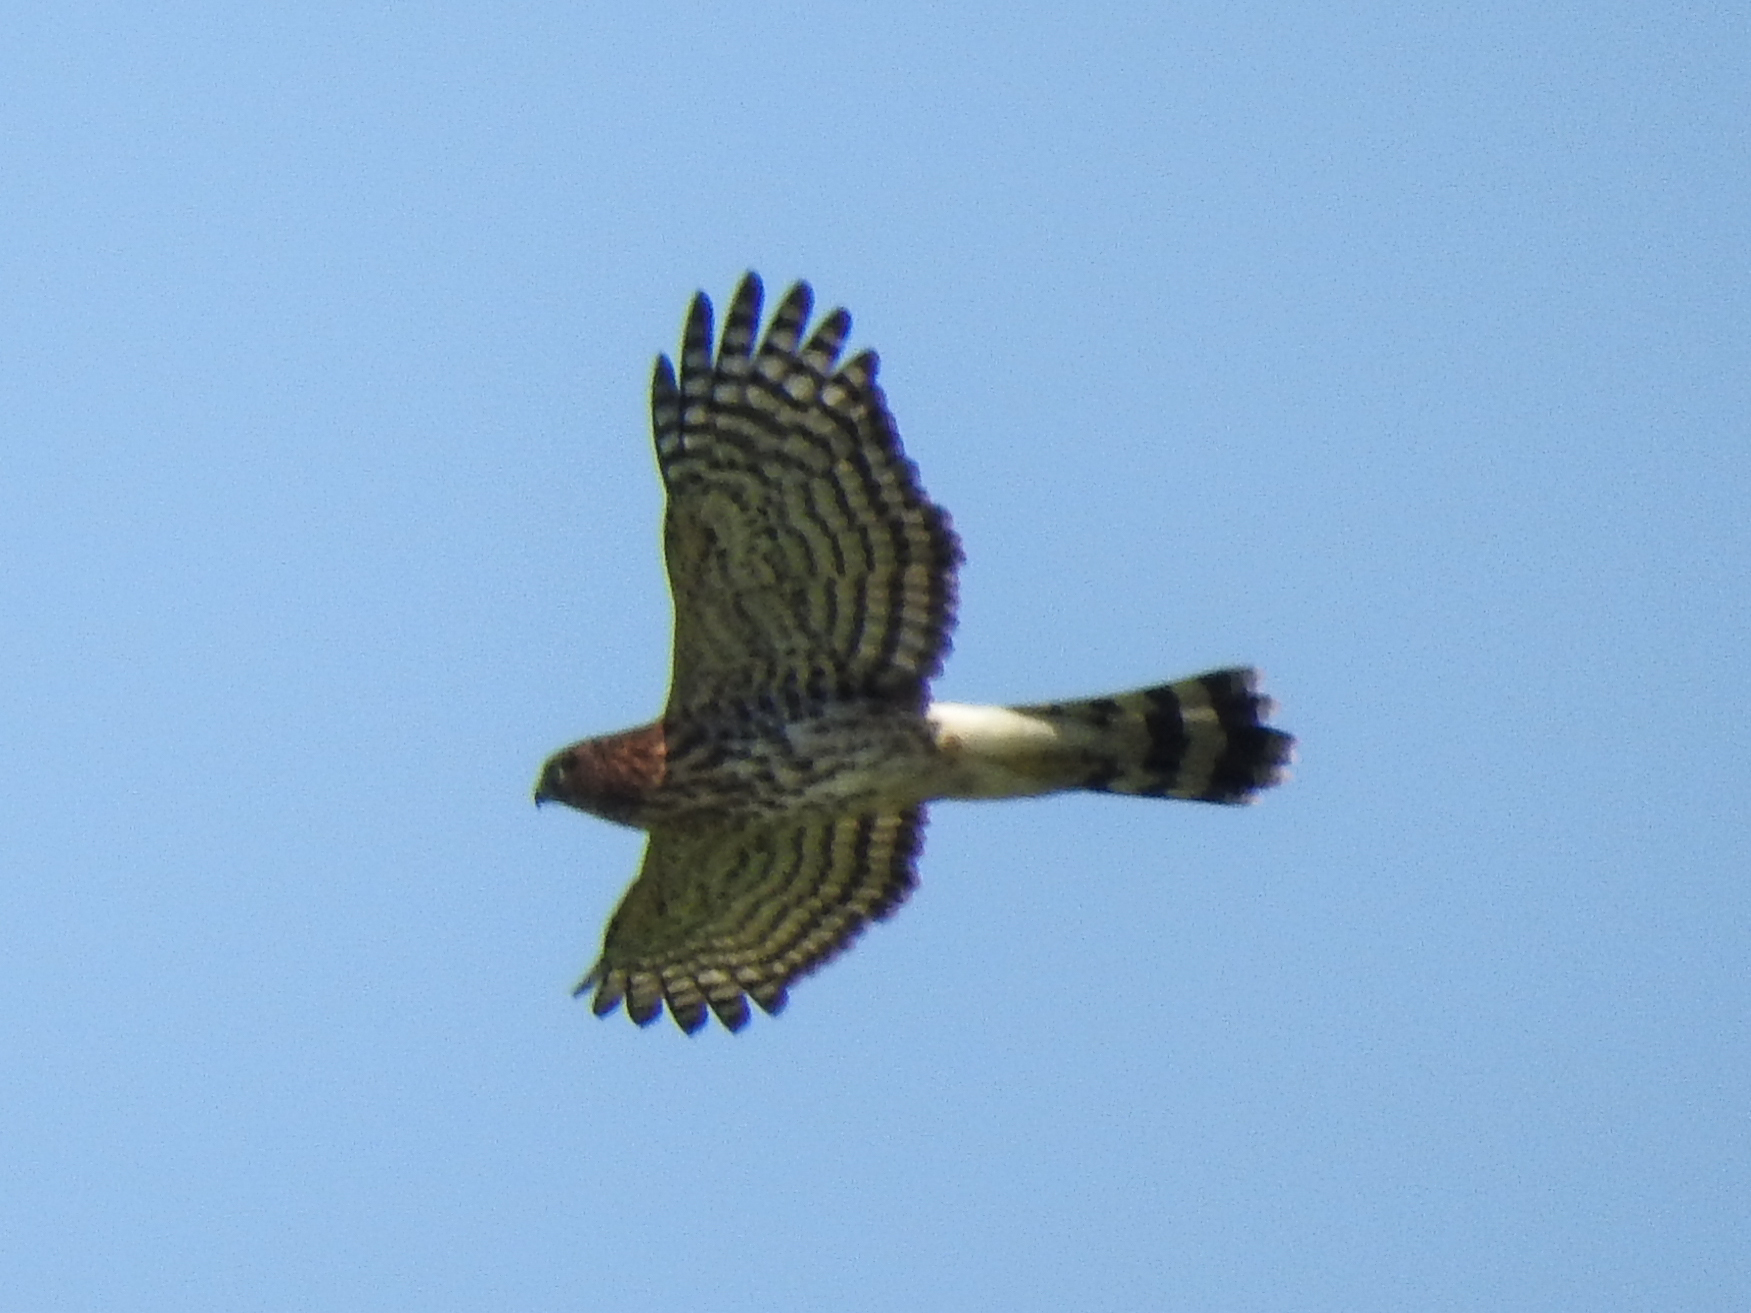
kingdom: Animalia
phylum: Chordata
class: Aves
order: Accipitriformes
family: Accipitridae
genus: Accipiter
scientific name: Accipiter cooperii
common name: Cooper's hawk
